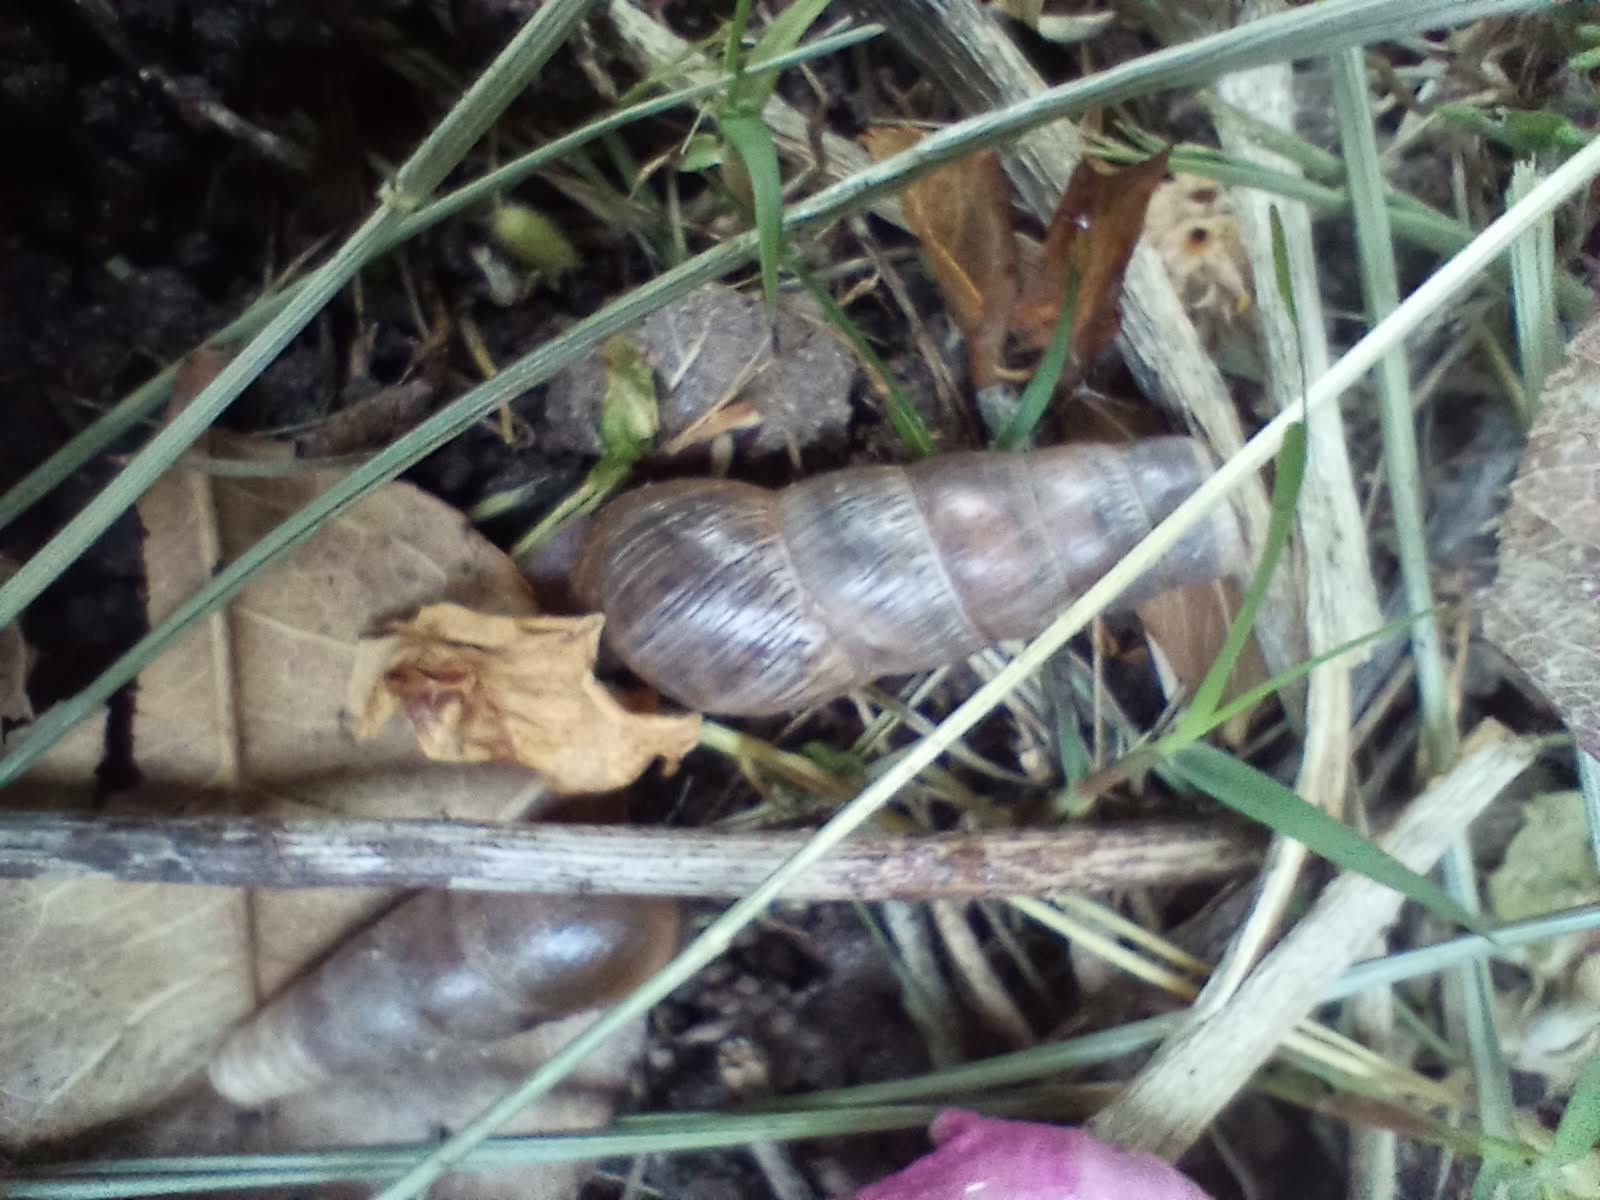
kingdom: Animalia
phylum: Mollusca
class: Gastropoda
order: Stylommatophora
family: Achatinidae
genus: Rumina
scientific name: Rumina decollata
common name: Decollate snail
